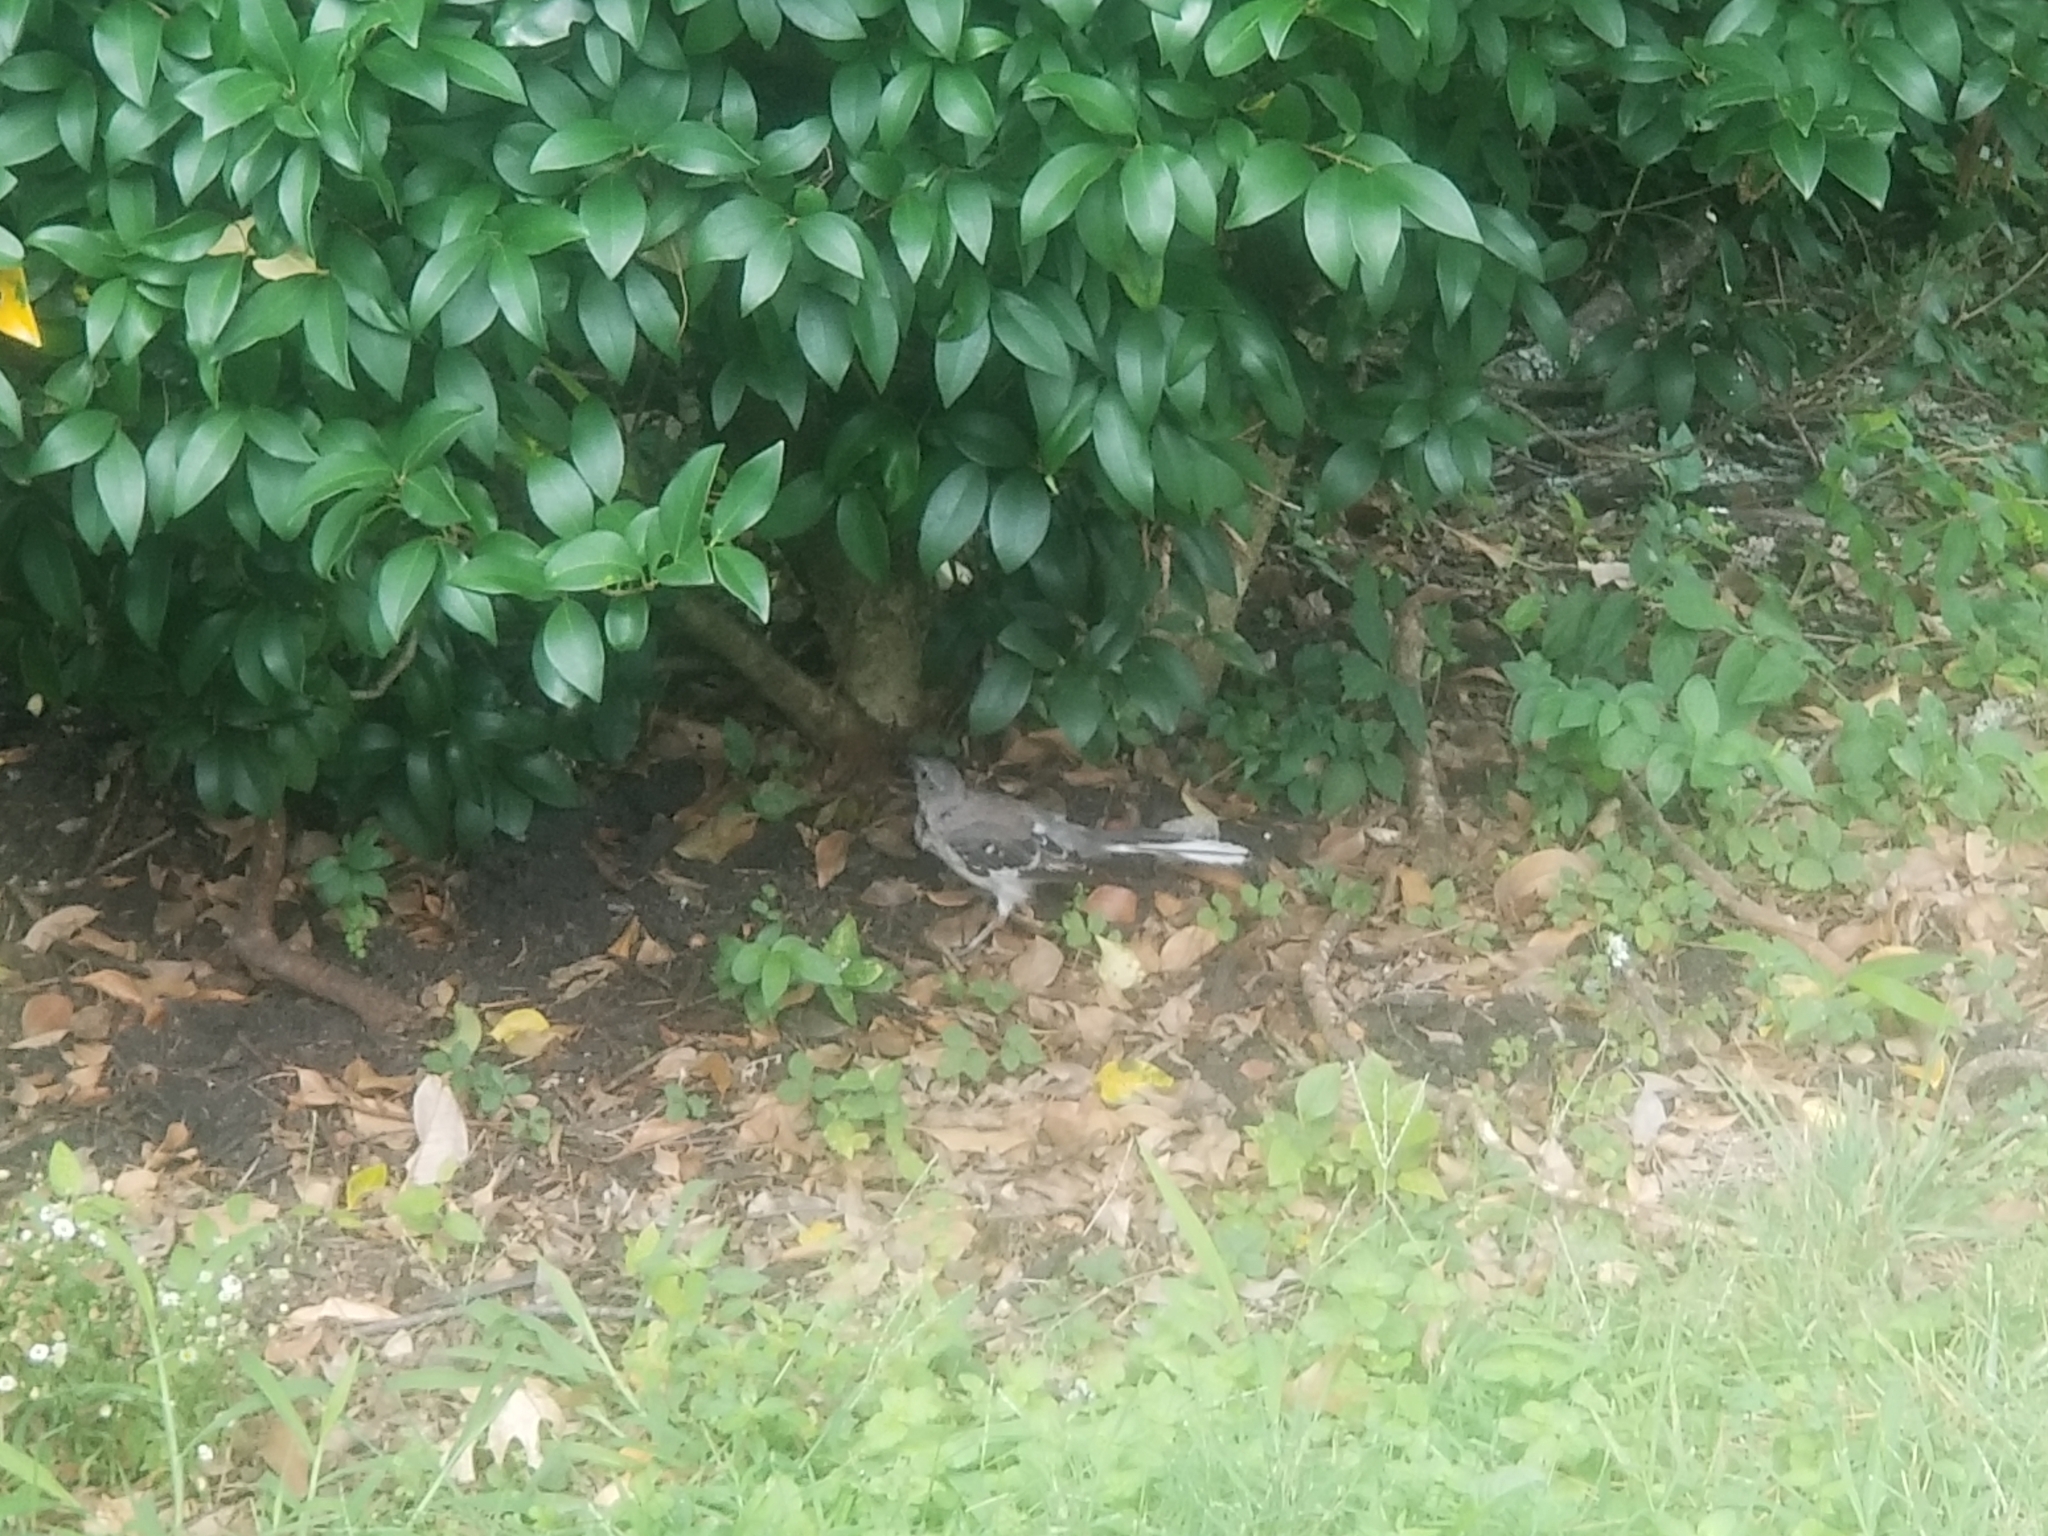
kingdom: Animalia
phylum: Chordata
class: Aves
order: Passeriformes
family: Mimidae
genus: Mimus
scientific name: Mimus polyglottos
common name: Northern mockingbird
